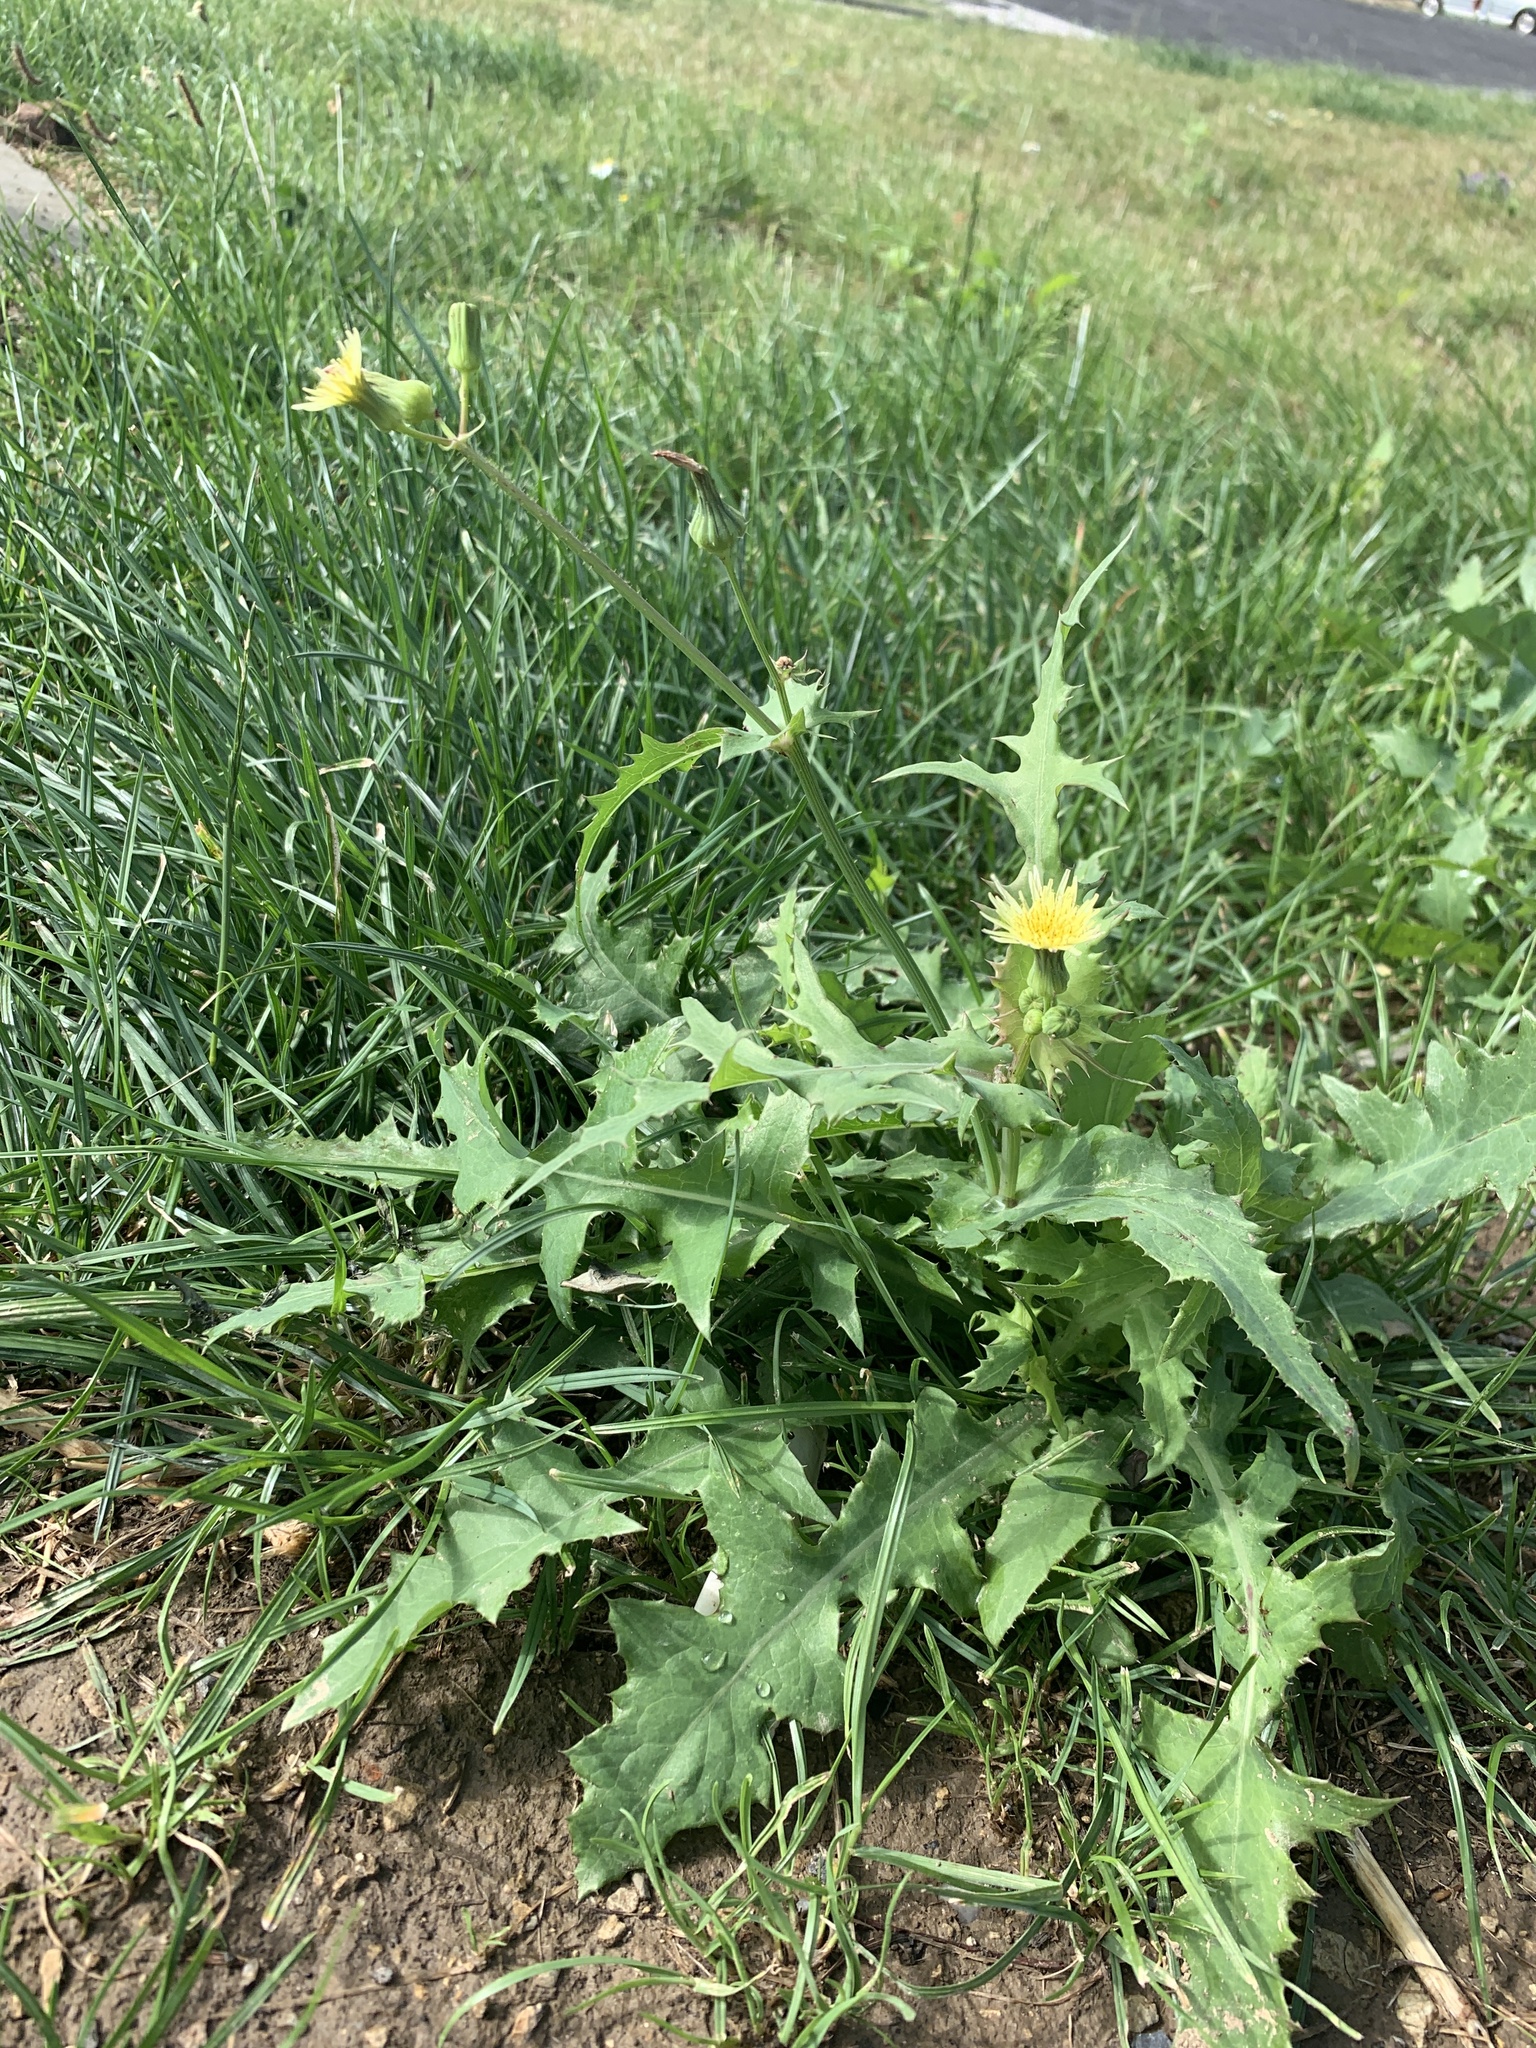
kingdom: Plantae
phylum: Tracheophyta
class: Magnoliopsida
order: Asterales
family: Asteraceae
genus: Sonchus
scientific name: Sonchus oleraceus
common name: Common sowthistle
